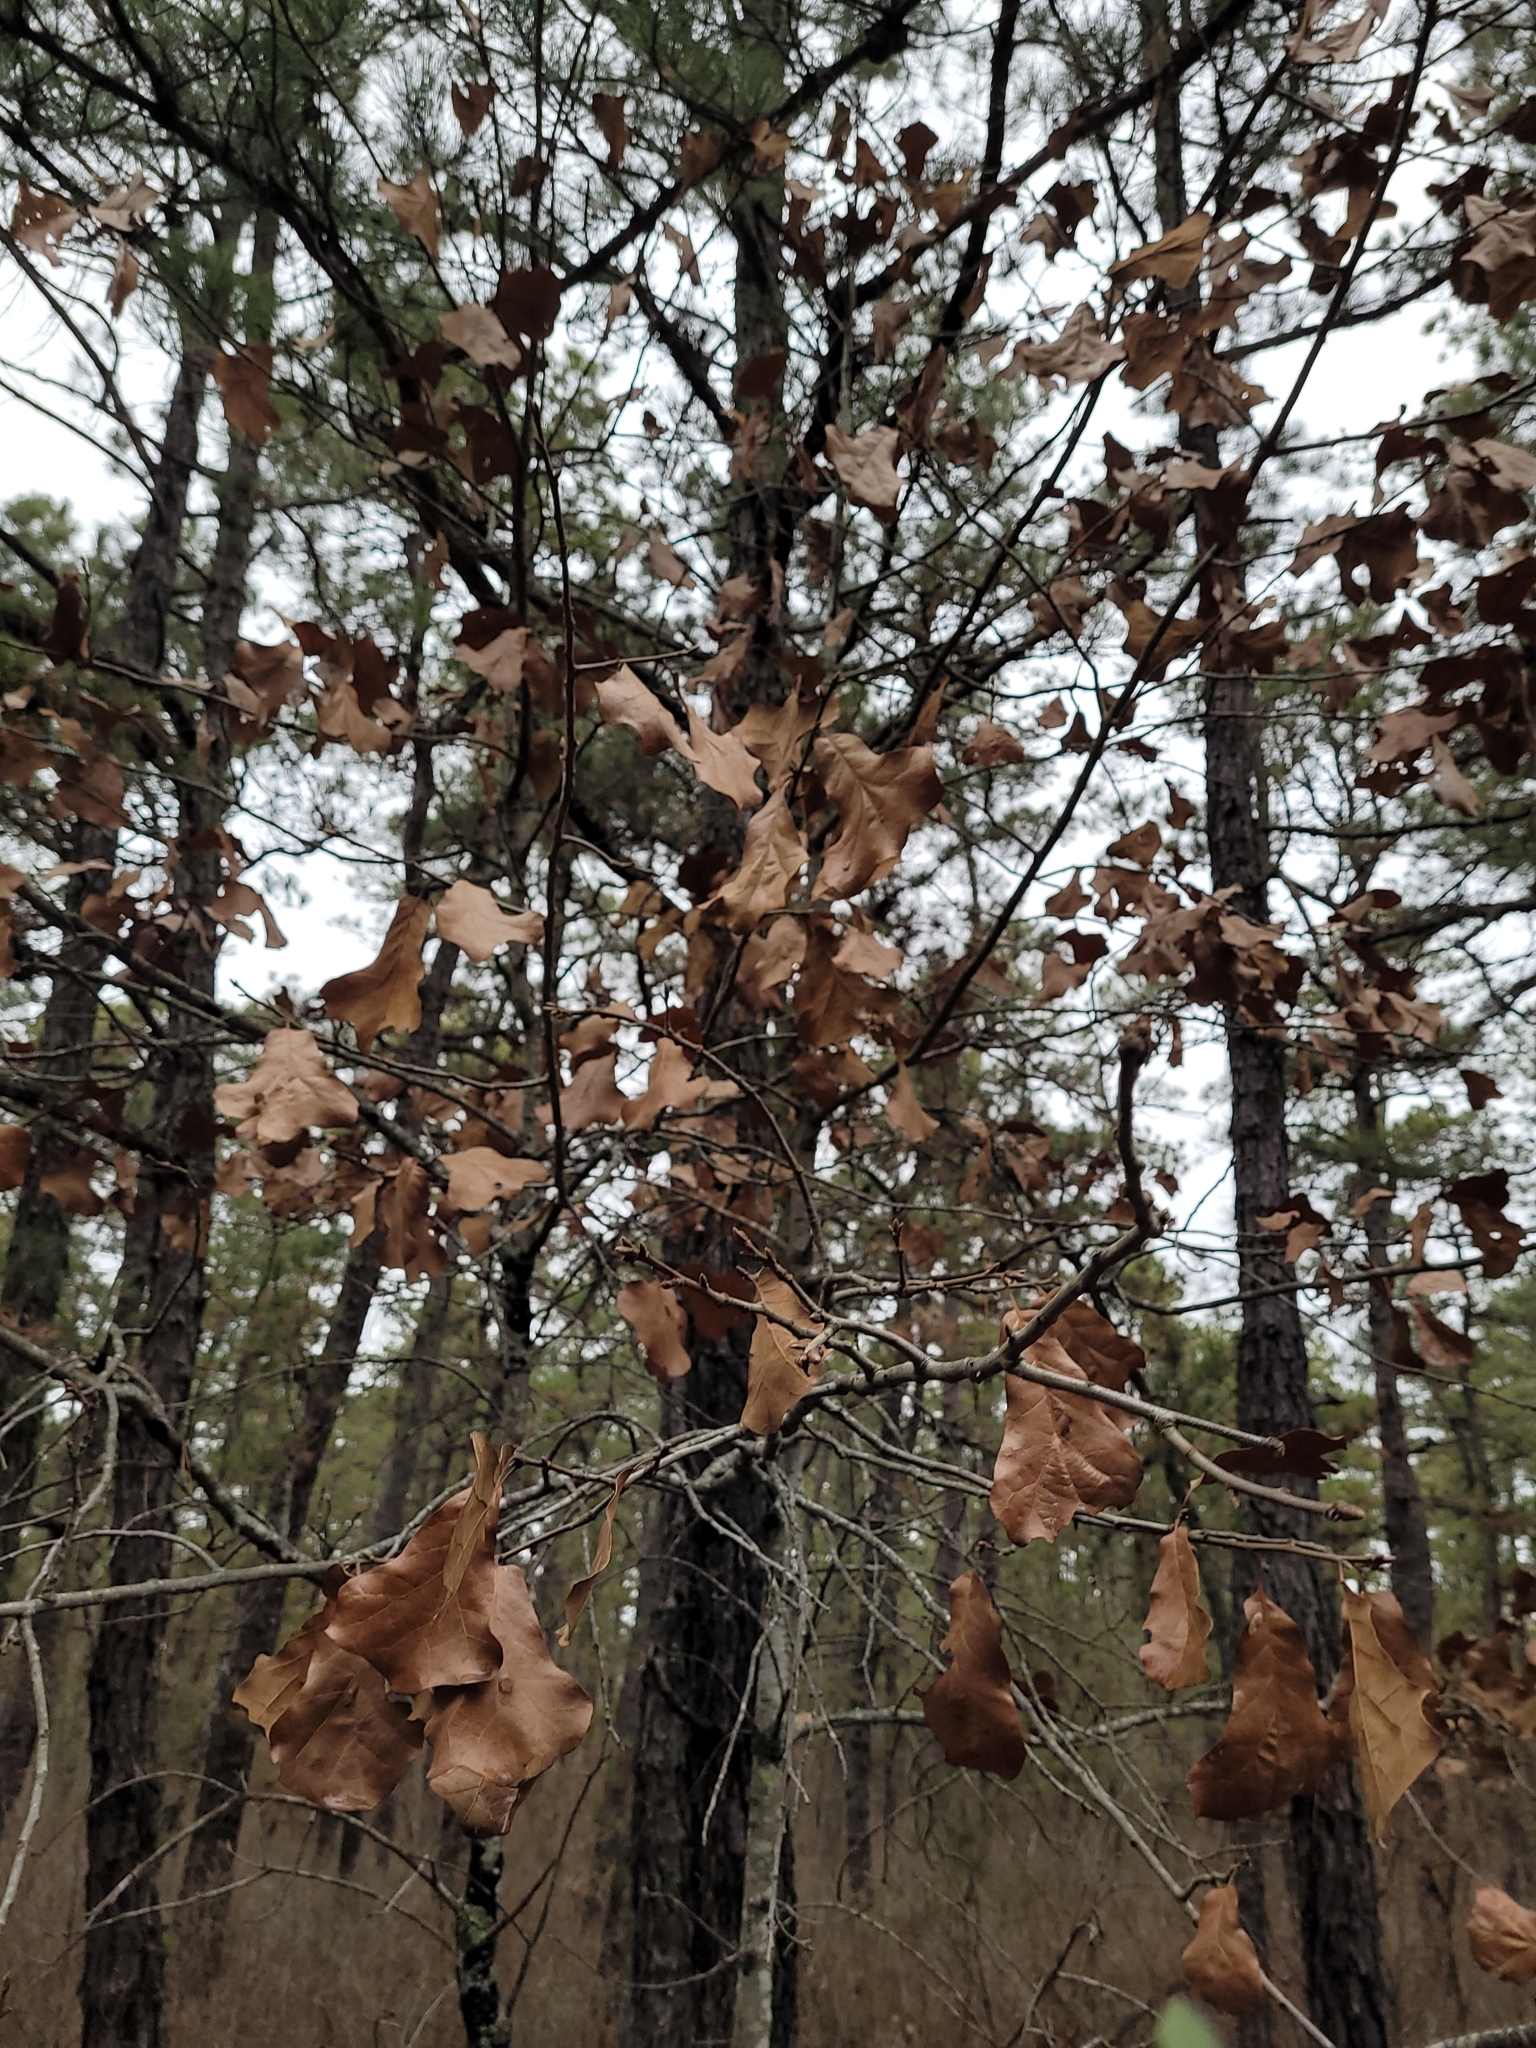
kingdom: Plantae
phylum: Tracheophyta
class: Magnoliopsida
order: Fagales
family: Fagaceae
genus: Quercus
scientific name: Quercus marilandica
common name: Blackjack oak
